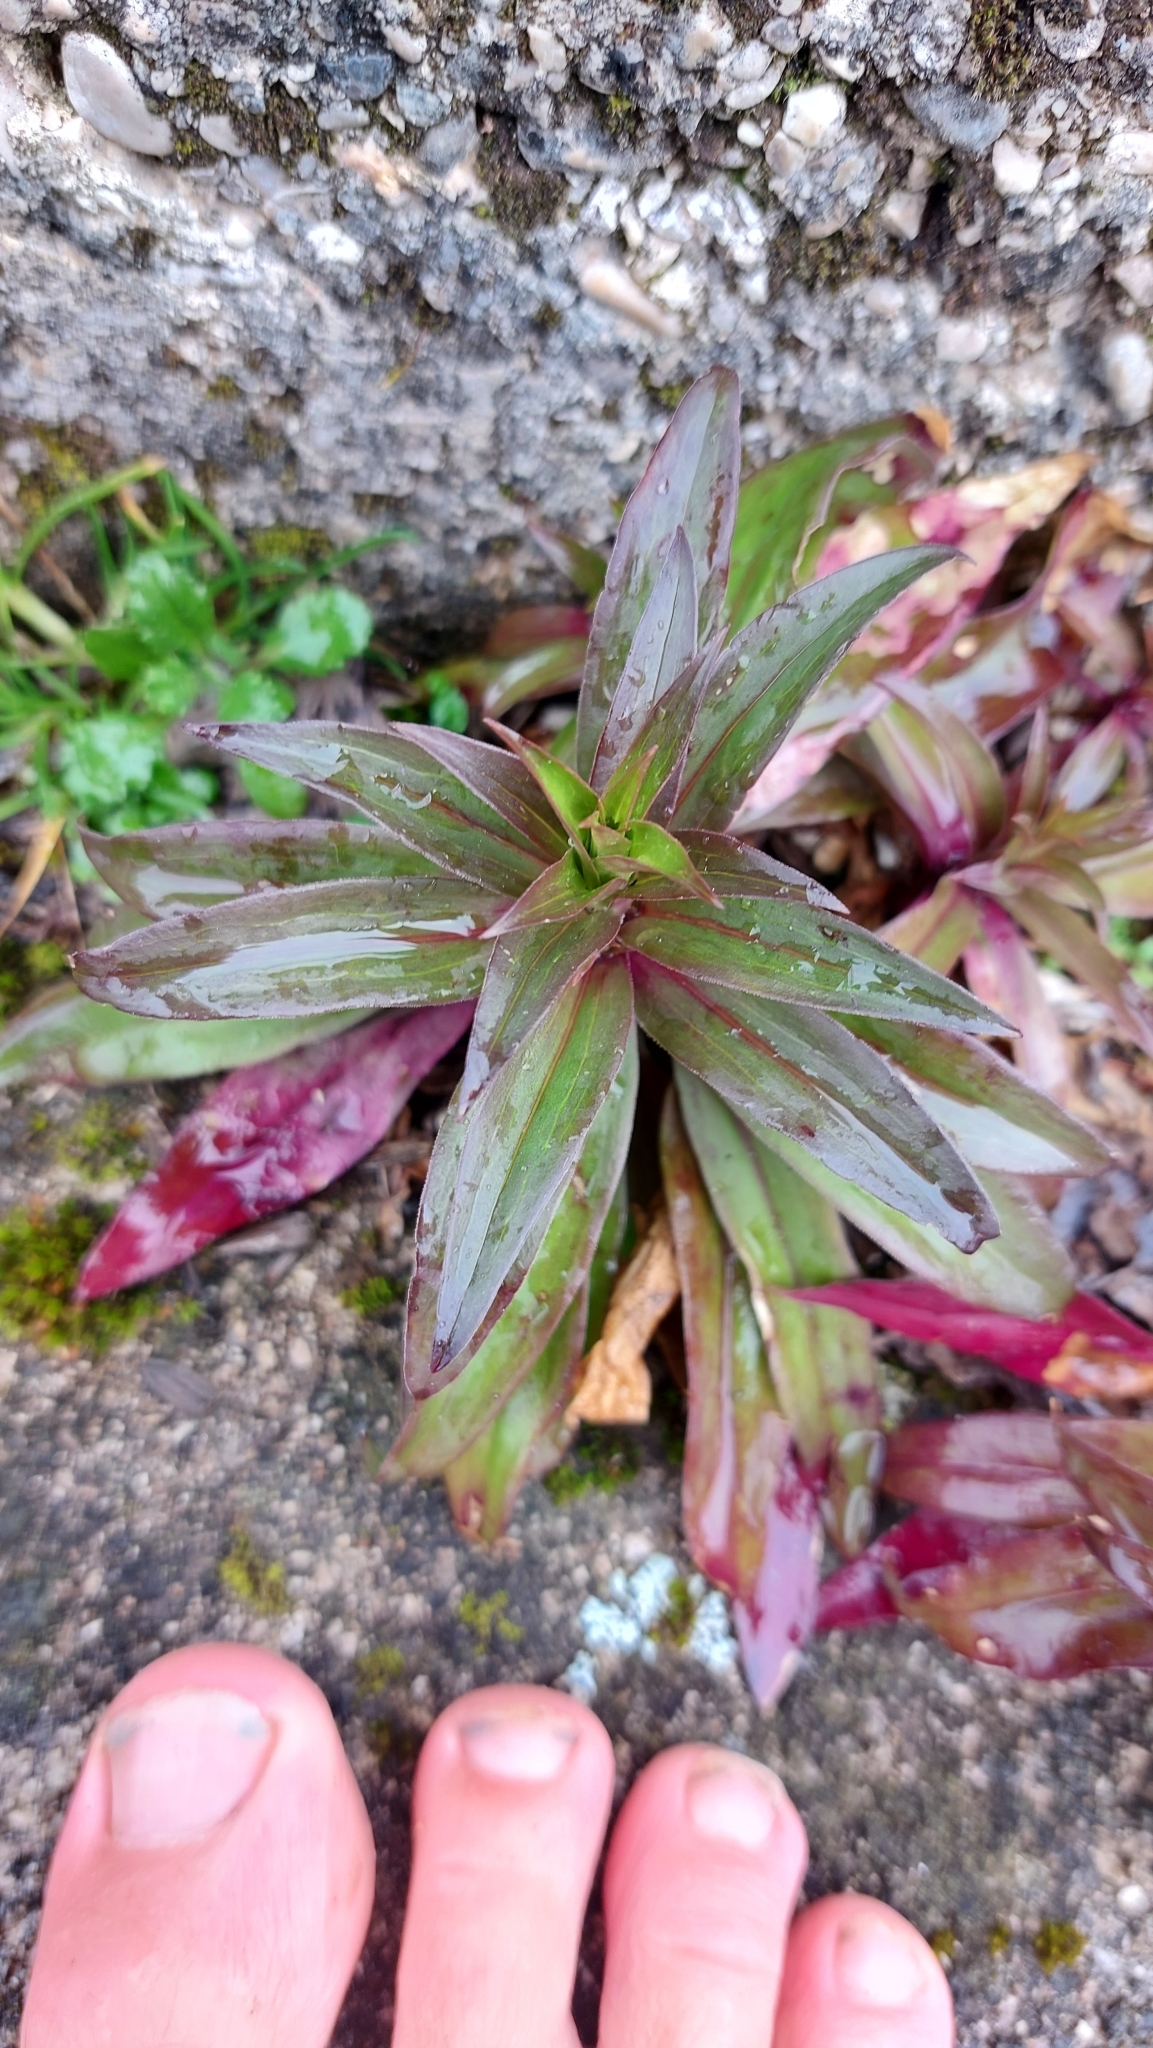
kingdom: Plantae
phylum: Tracheophyta
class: Magnoliopsida
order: Caryophyllales
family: Caryophyllaceae
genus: Dianthus
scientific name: Dianthus barbatus
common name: Sweet-william
